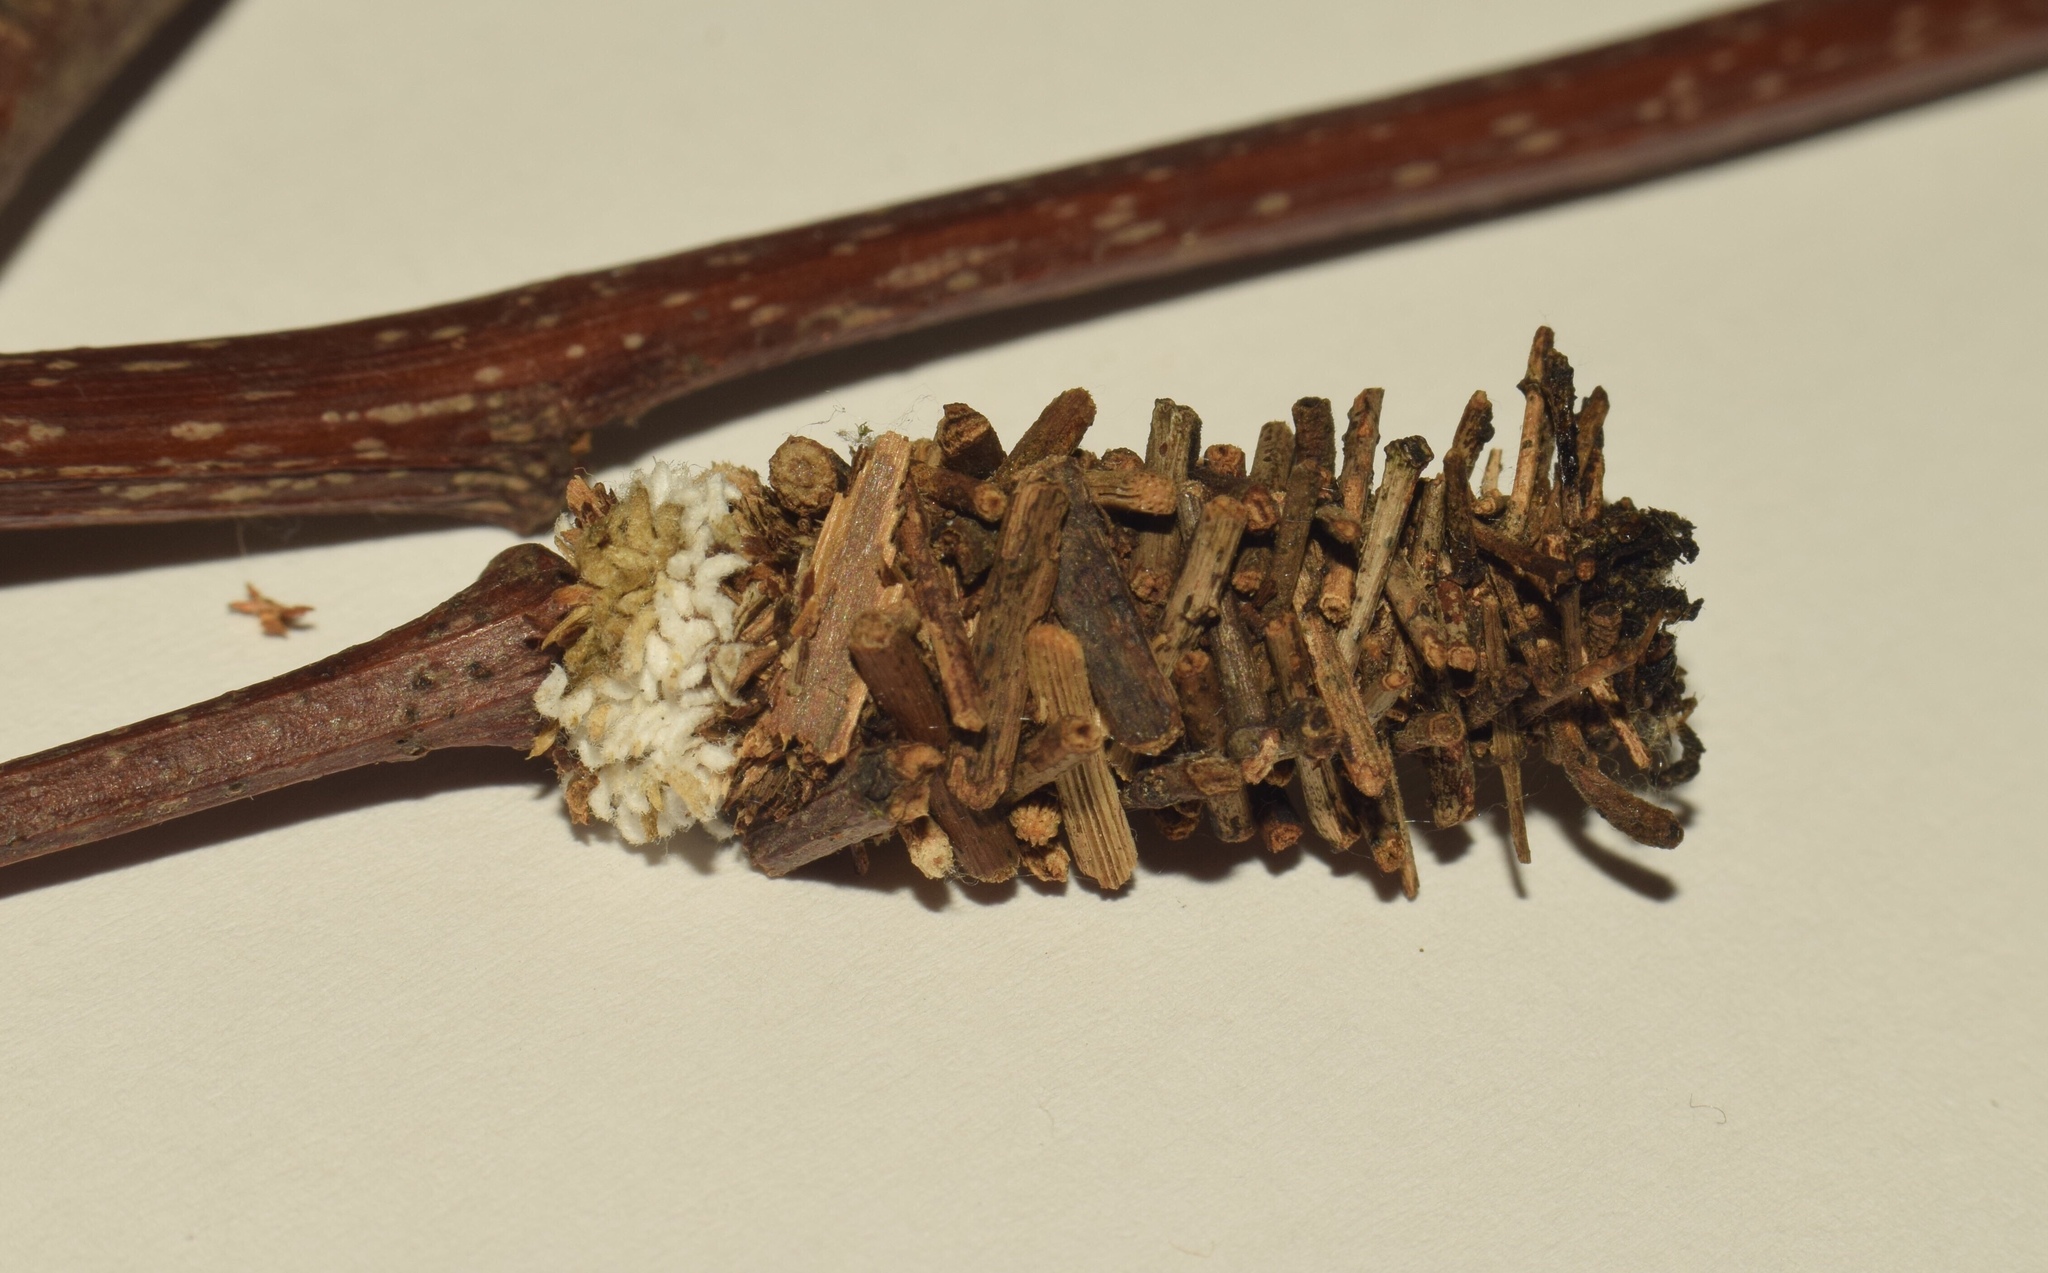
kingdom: Animalia
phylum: Arthropoda
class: Insecta
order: Lepidoptera
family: Psychidae
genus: Gymnelema
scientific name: Gymnelema vinctus
